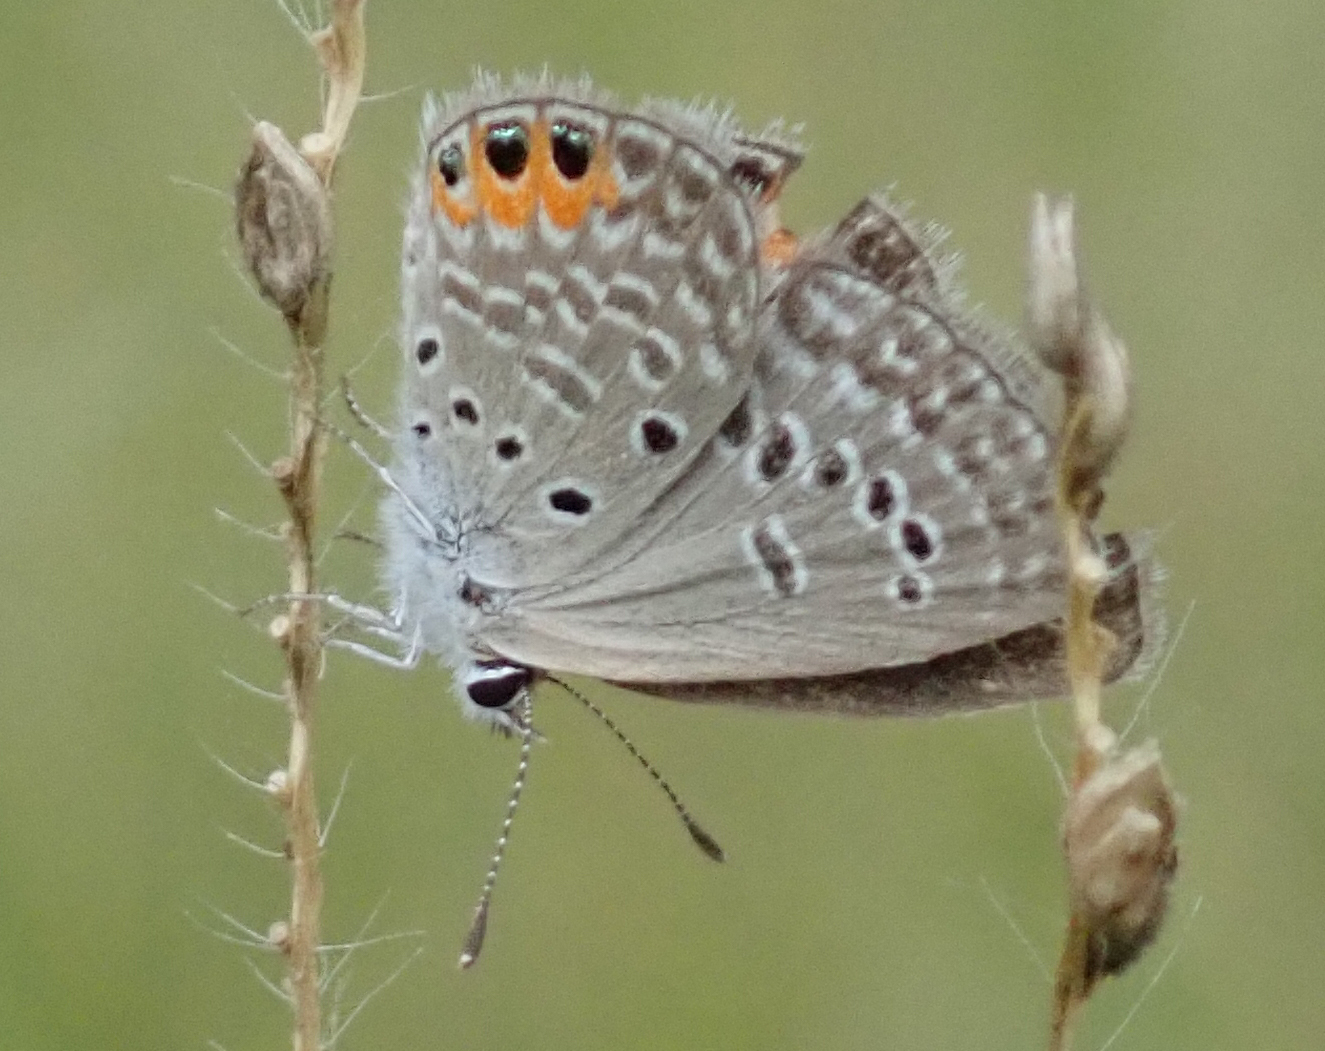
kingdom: Animalia
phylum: Arthropoda
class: Insecta
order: Lepidoptera
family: Lycaenidae
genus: Freyeria
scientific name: Freyeria trochylus
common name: Grass jewel
